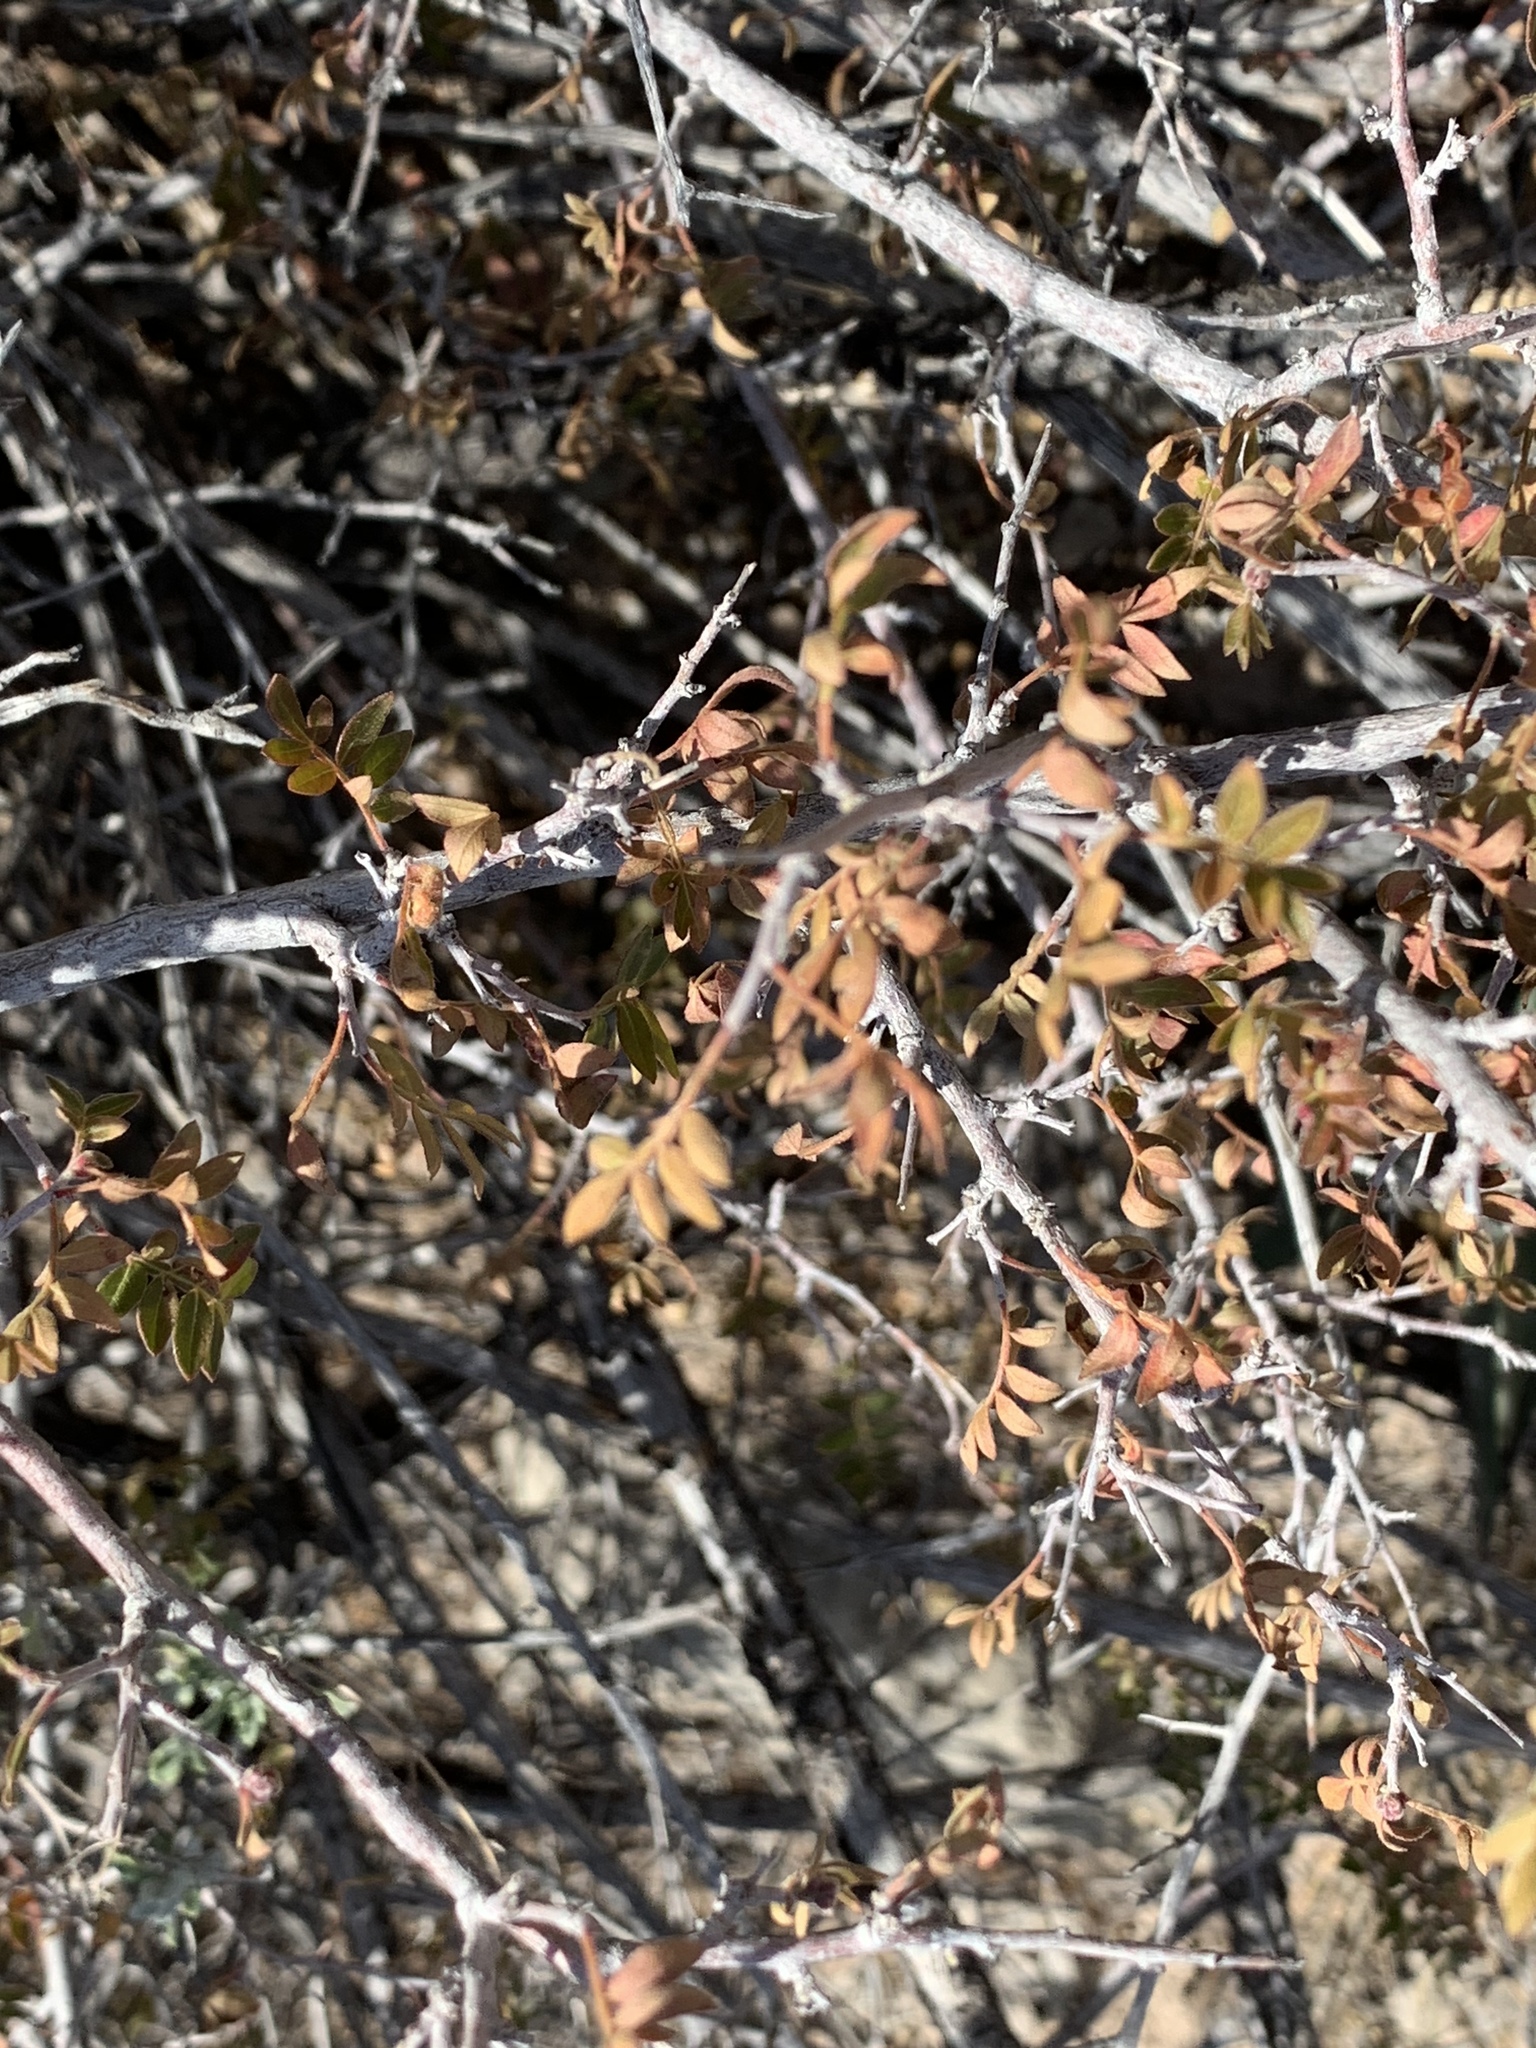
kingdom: Plantae
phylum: Tracheophyta
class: Magnoliopsida
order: Sapindales
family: Anacardiaceae
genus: Rhus
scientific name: Rhus microphylla
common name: Desert sumac
